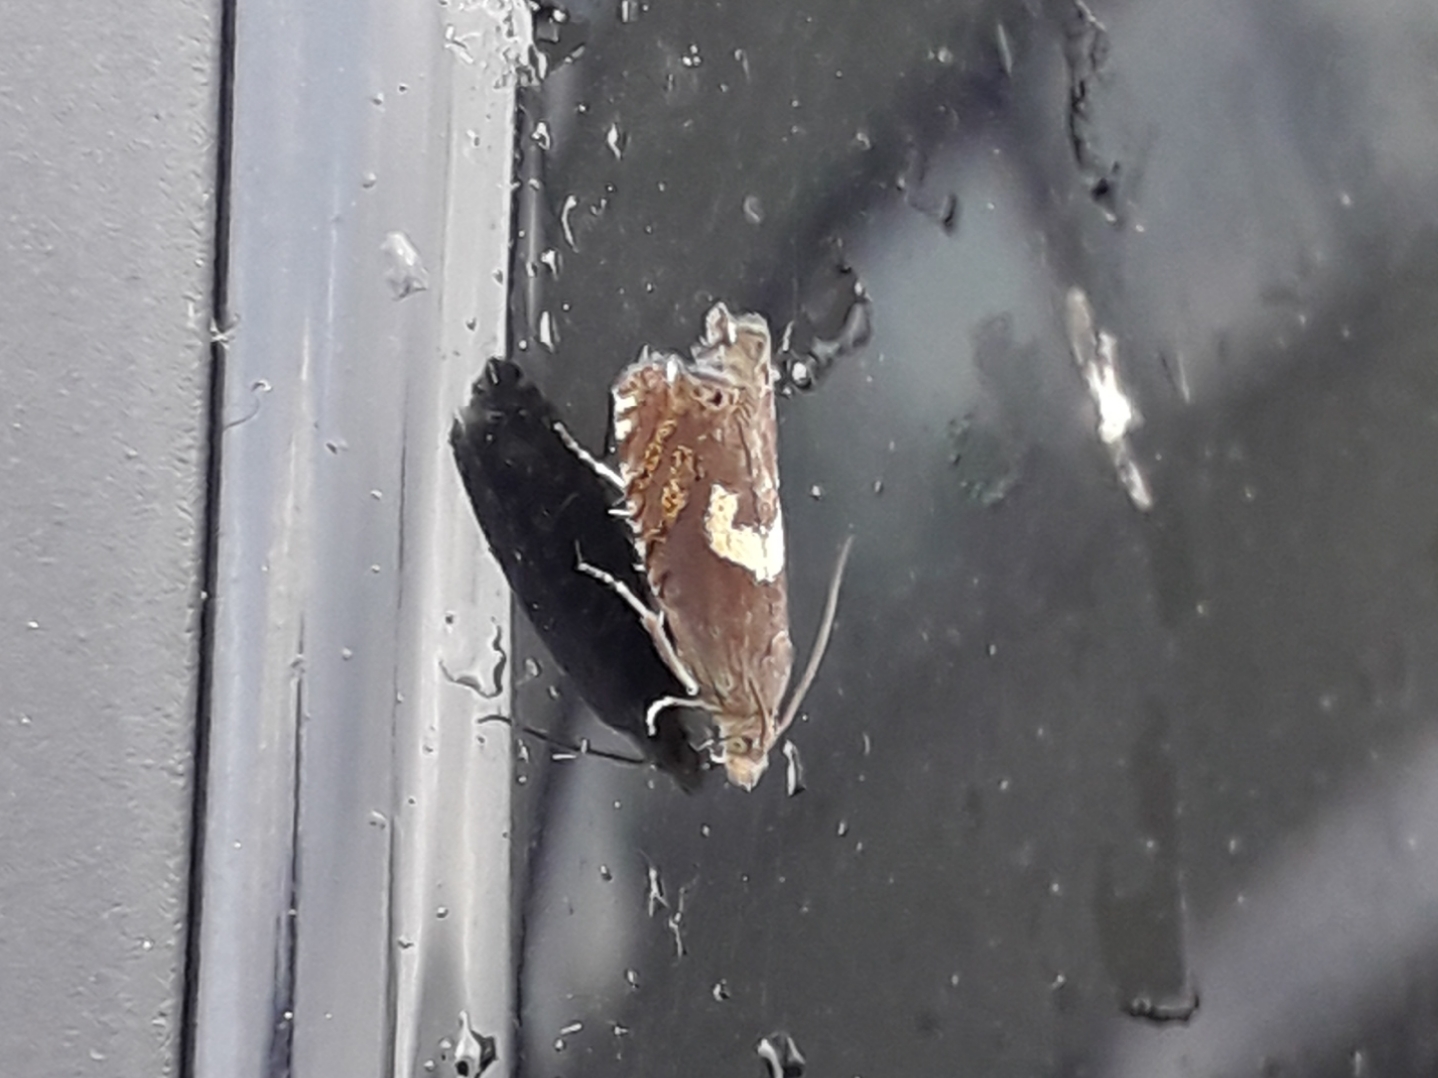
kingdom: Animalia
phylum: Arthropoda
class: Insecta
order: Lepidoptera
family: Tortricidae
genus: Dichrorampha
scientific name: Dichrorampha petiverella
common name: Common drill
